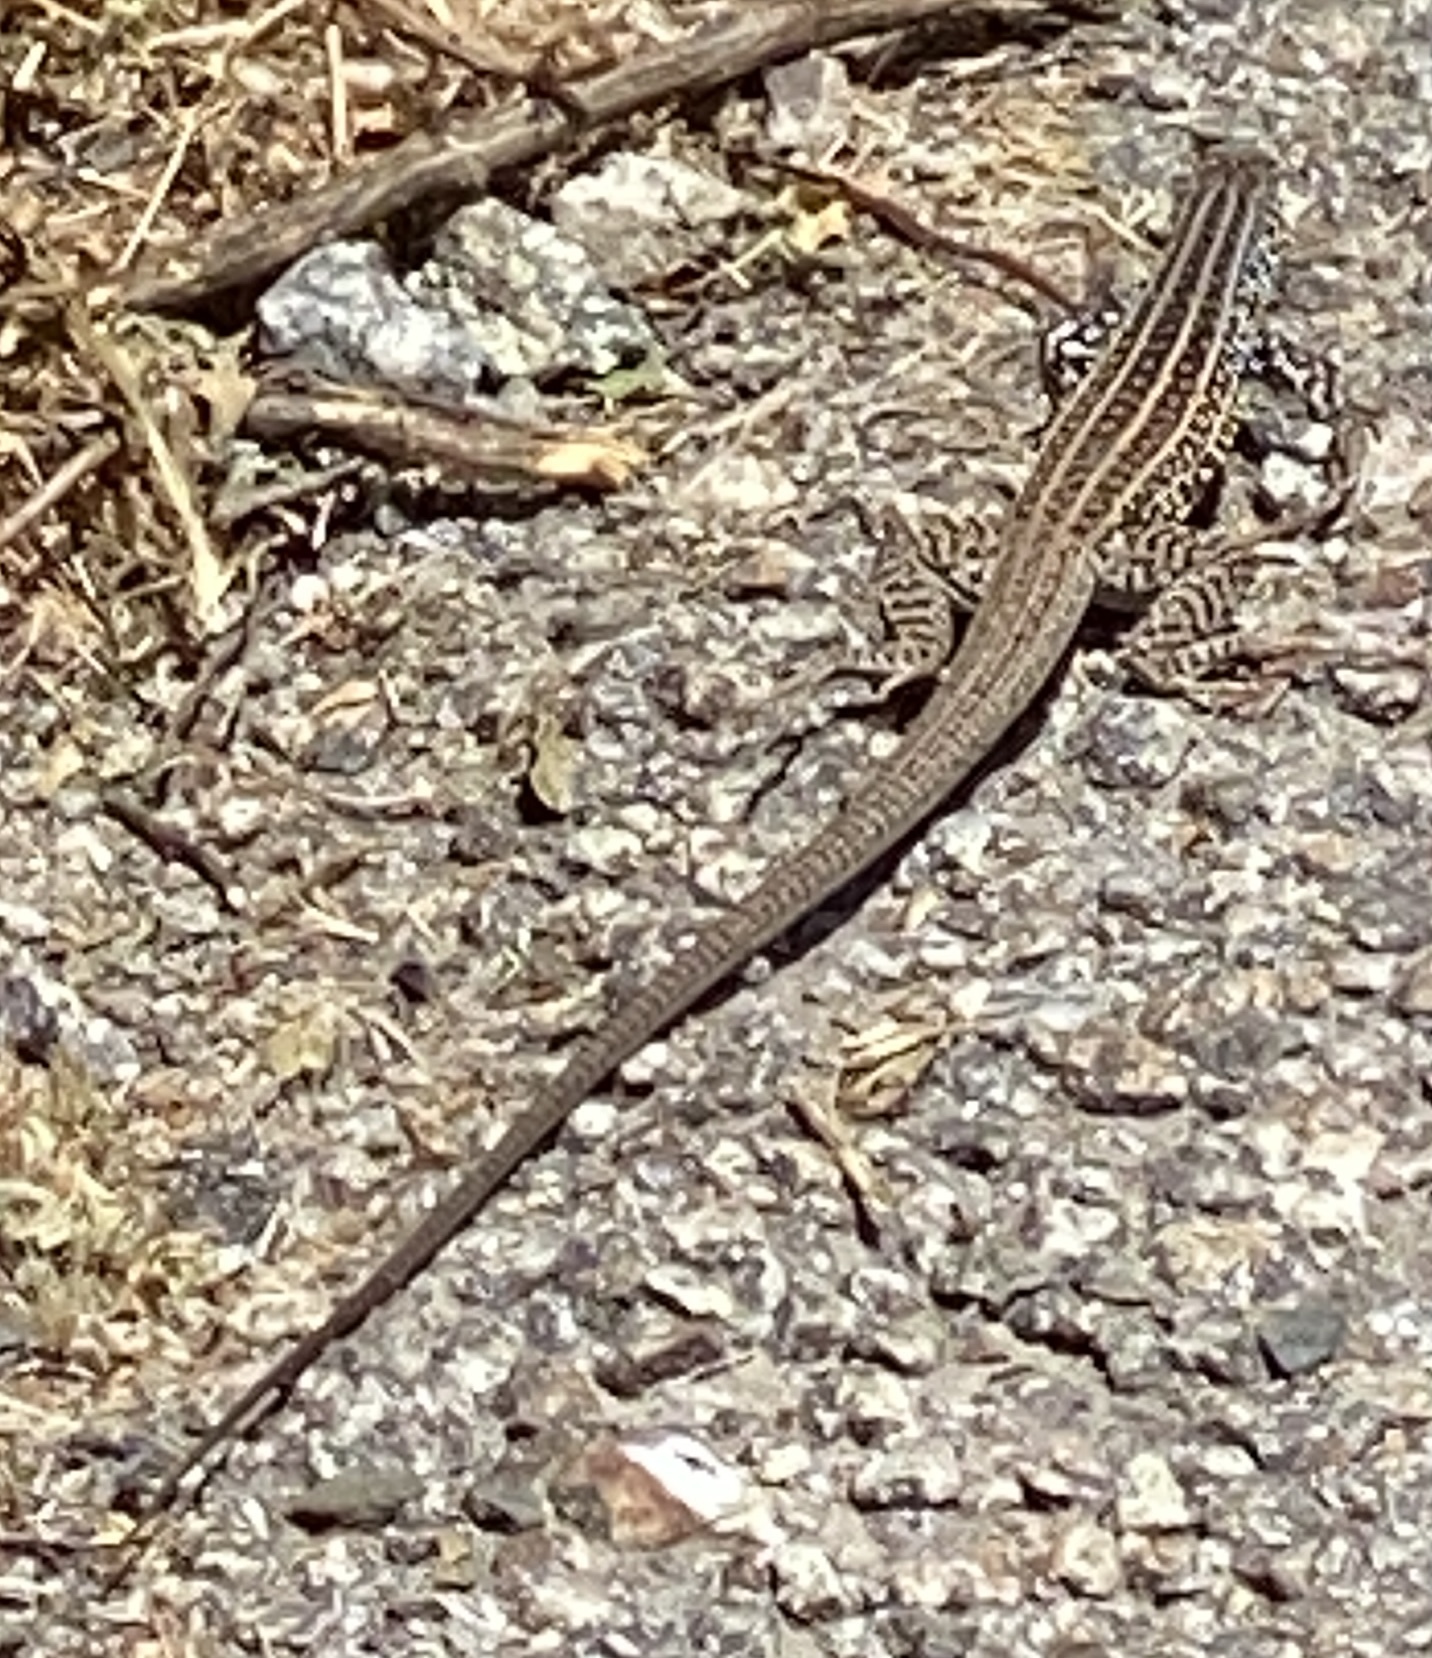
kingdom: Animalia
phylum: Chordata
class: Squamata
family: Teiidae
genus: Aspidoscelis
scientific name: Aspidoscelis tigris
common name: Tiger whiptail
